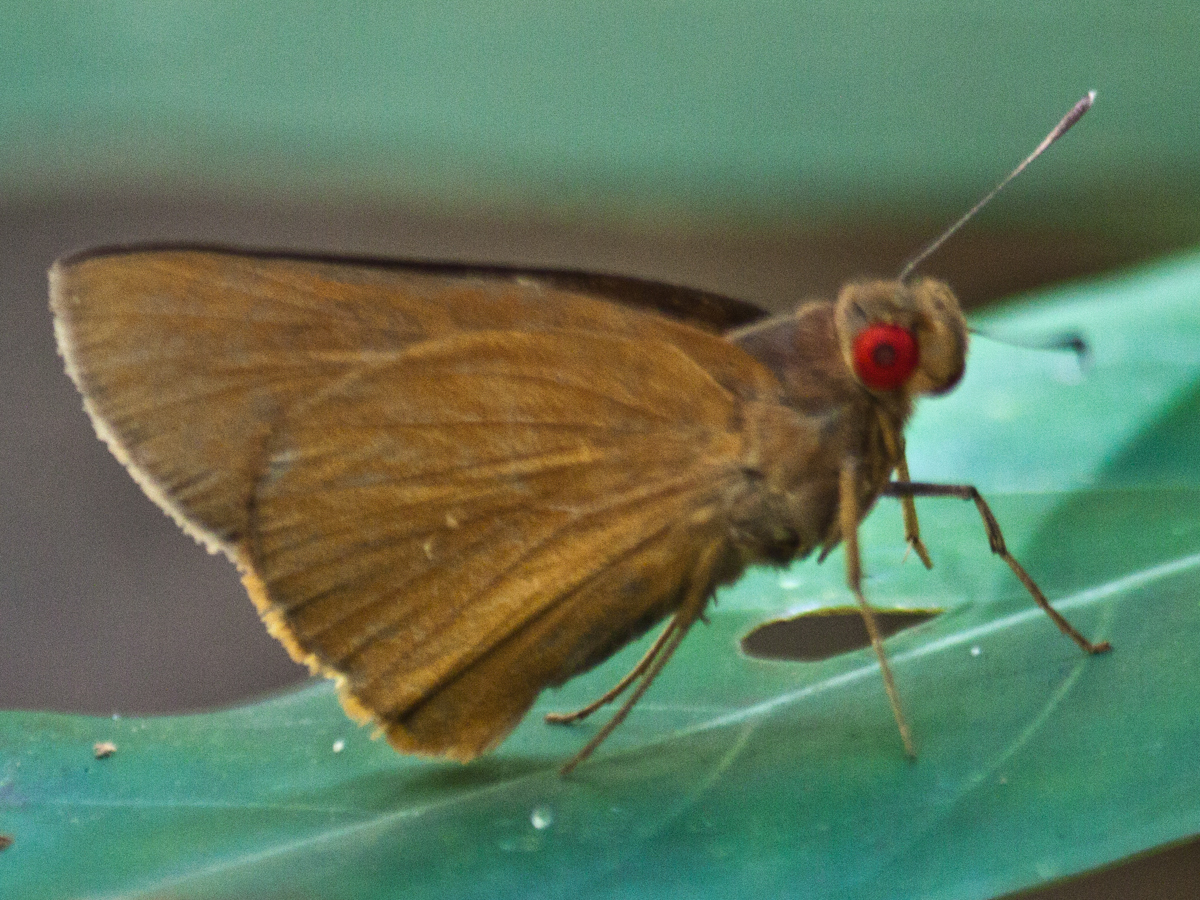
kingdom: Animalia
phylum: Arthropoda
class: Insecta
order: Lepidoptera
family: Hesperiidae
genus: Matapa
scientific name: Matapa druna
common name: Grey-brand redeye
